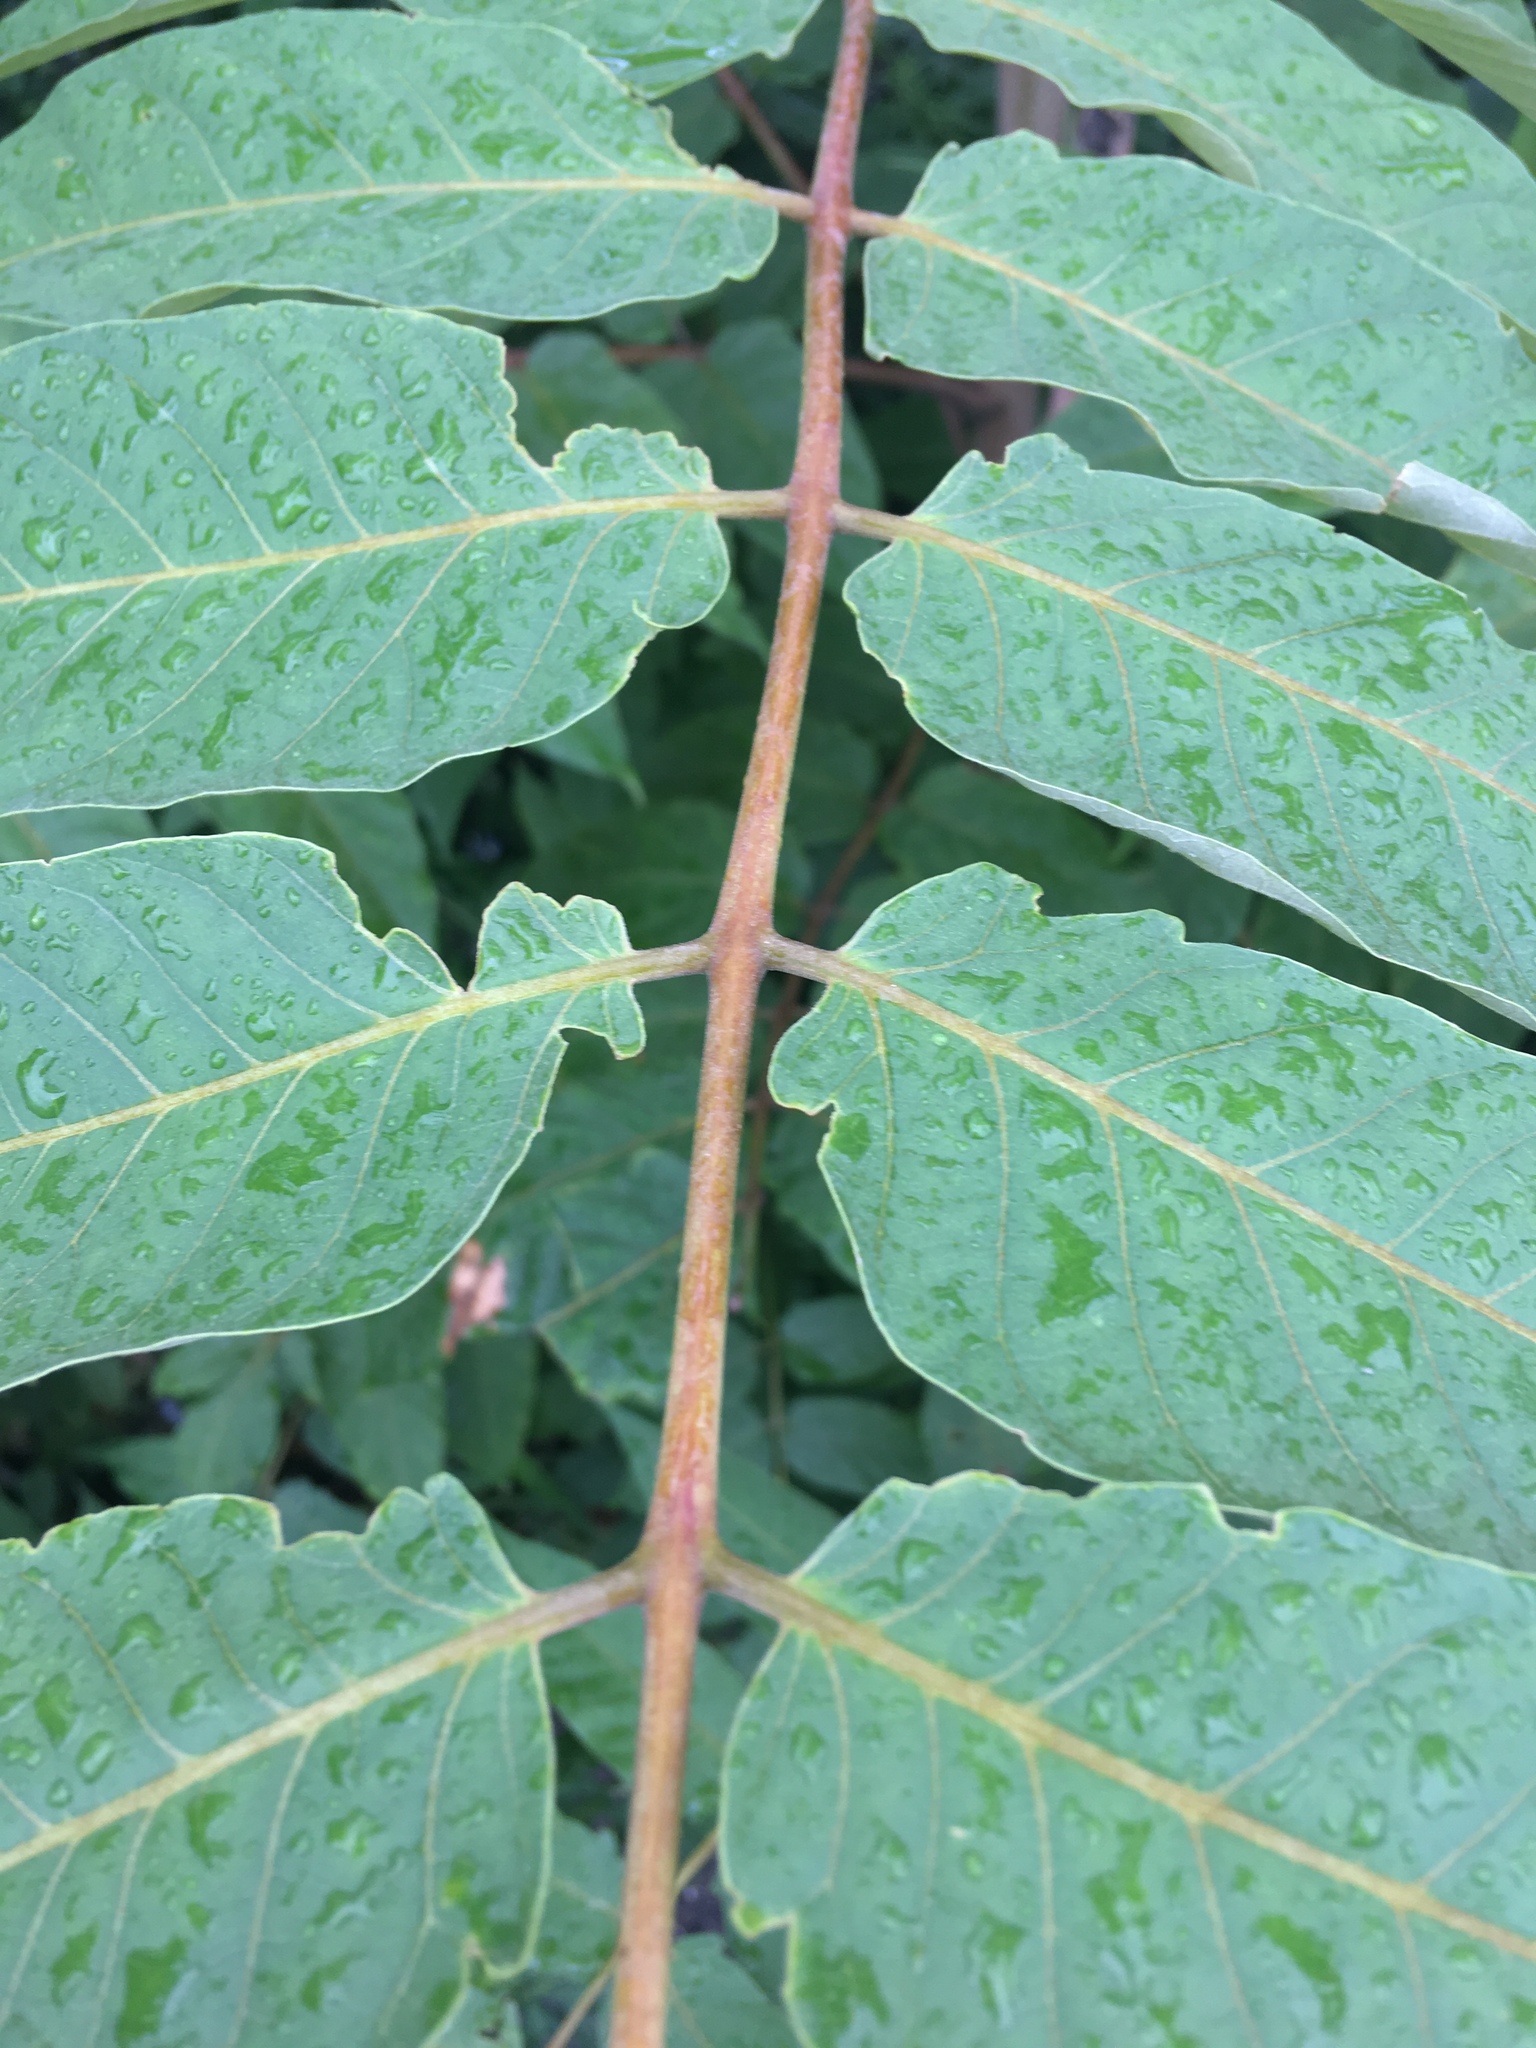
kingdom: Plantae
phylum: Tracheophyta
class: Magnoliopsida
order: Sapindales
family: Simaroubaceae
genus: Ailanthus
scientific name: Ailanthus altissima
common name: Tree-of-heaven
